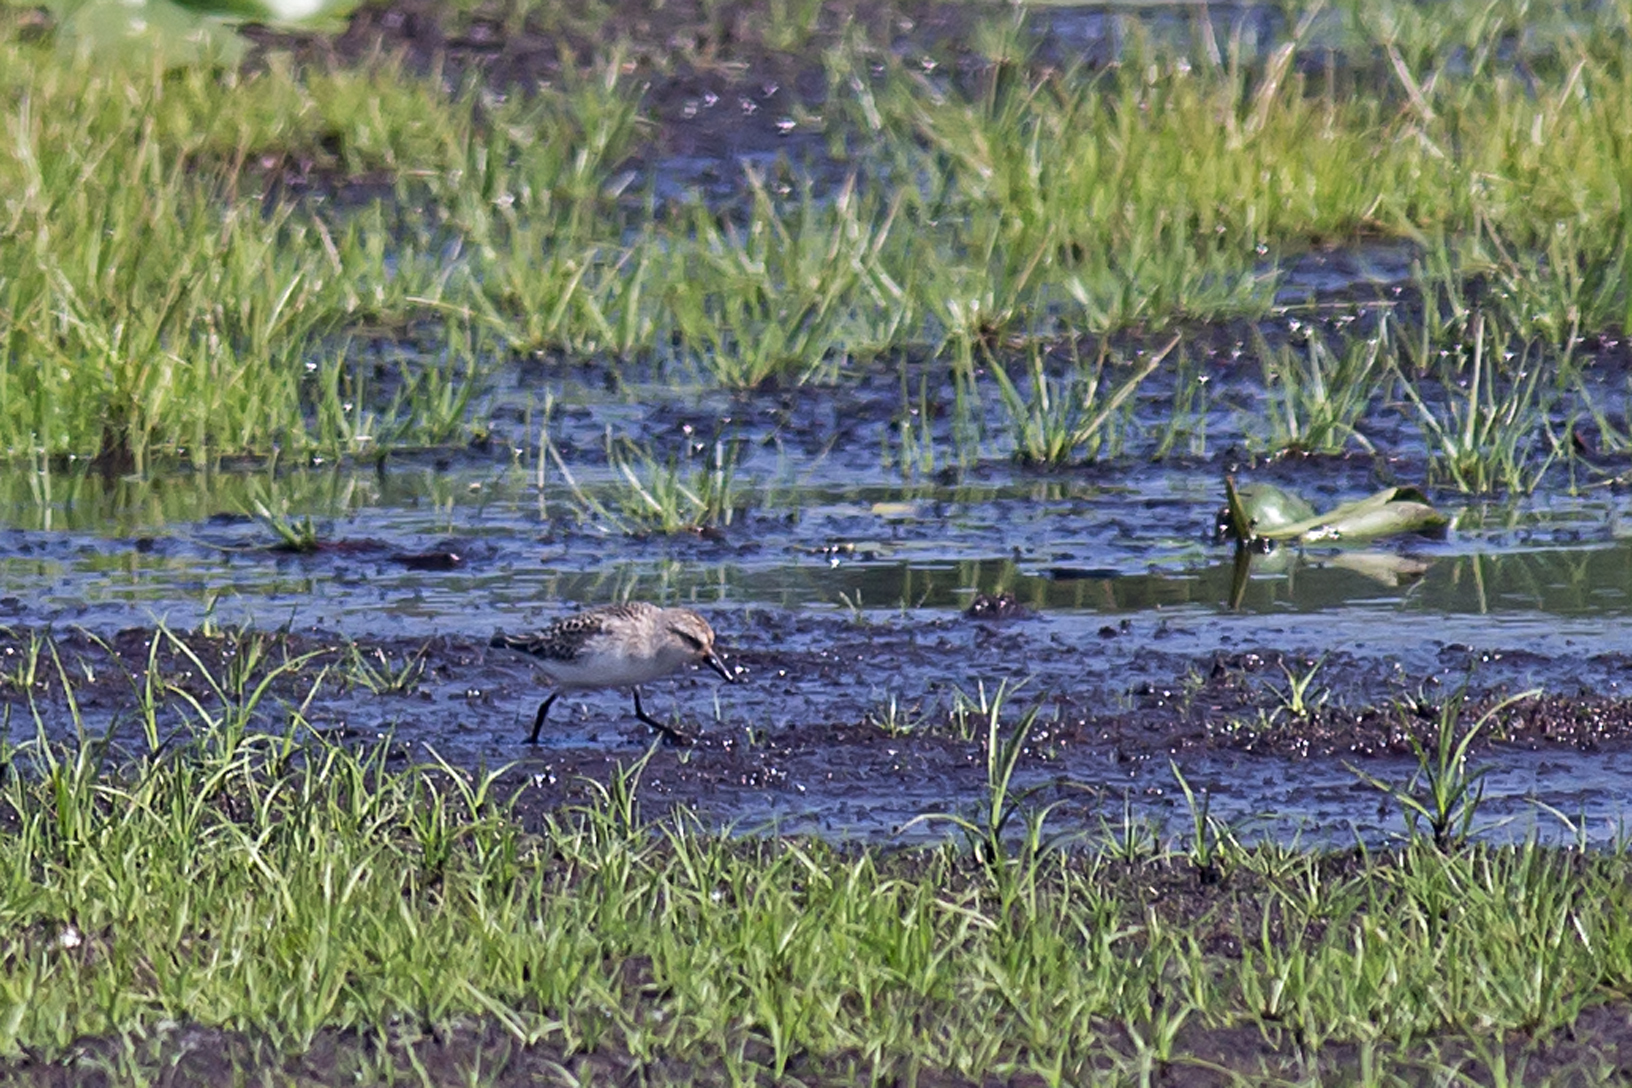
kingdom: Animalia
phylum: Chordata
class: Aves
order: Charadriiformes
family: Scolopacidae
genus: Calidris
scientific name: Calidris pusilla
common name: Semipalmated sandpiper
